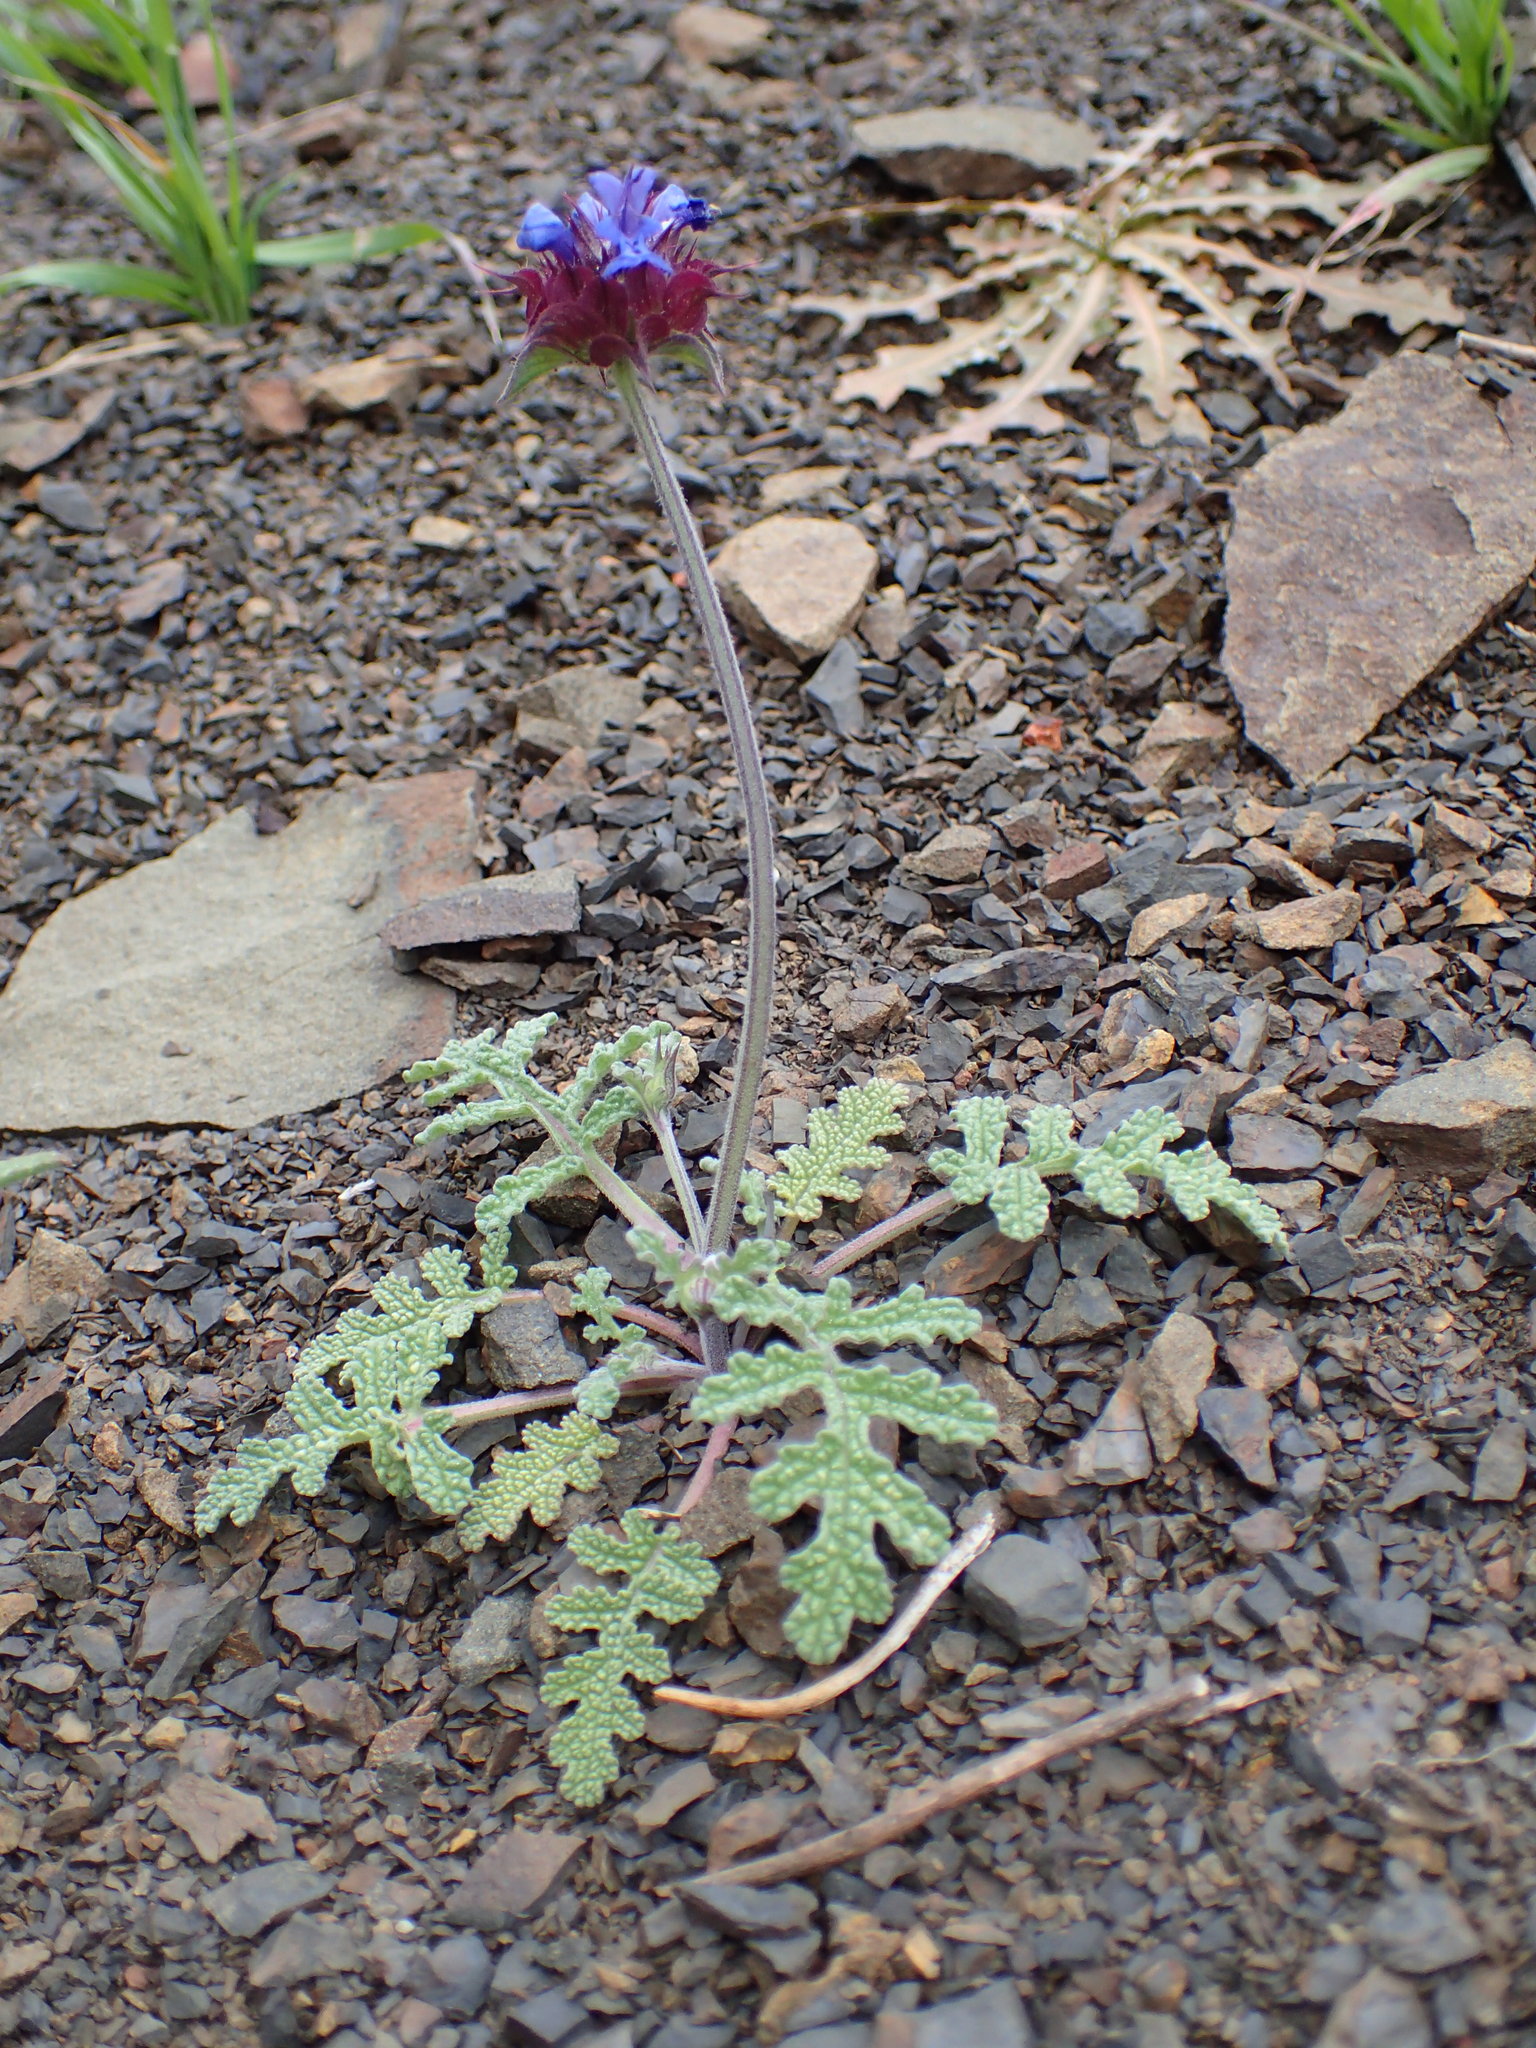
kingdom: Plantae
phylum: Tracheophyta
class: Magnoliopsida
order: Lamiales
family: Lamiaceae
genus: Salvia
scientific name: Salvia columbariae
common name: Chia
